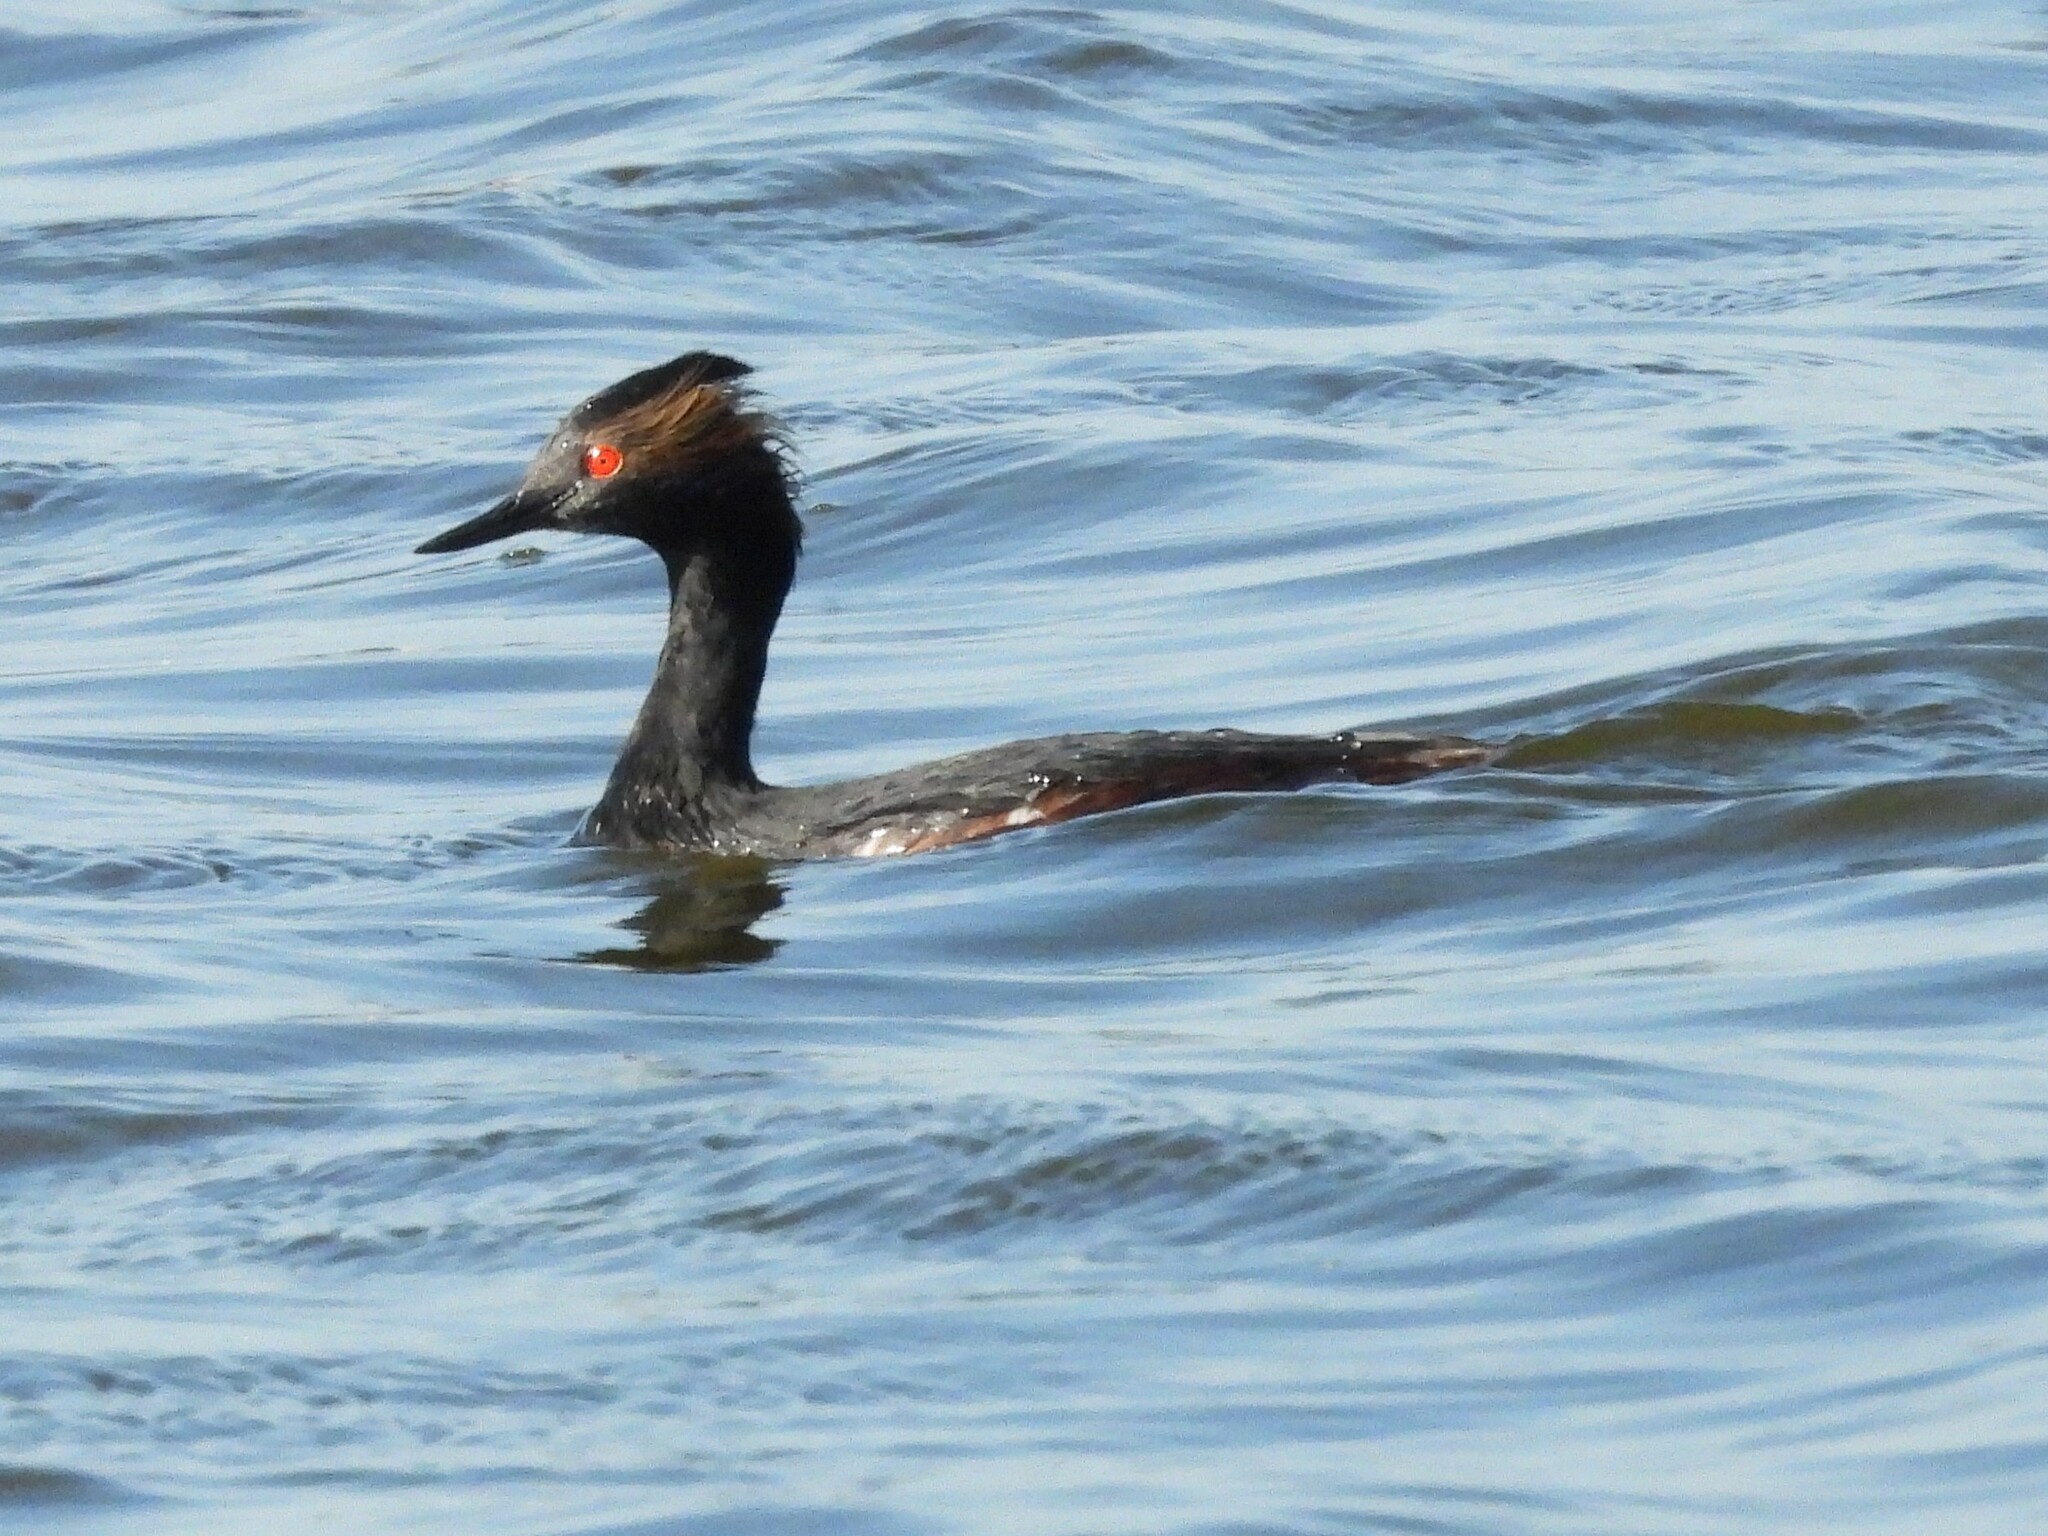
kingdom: Animalia
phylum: Chordata
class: Aves
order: Podicipediformes
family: Podicipedidae
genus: Podiceps
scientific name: Podiceps nigricollis
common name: Black-necked grebe
